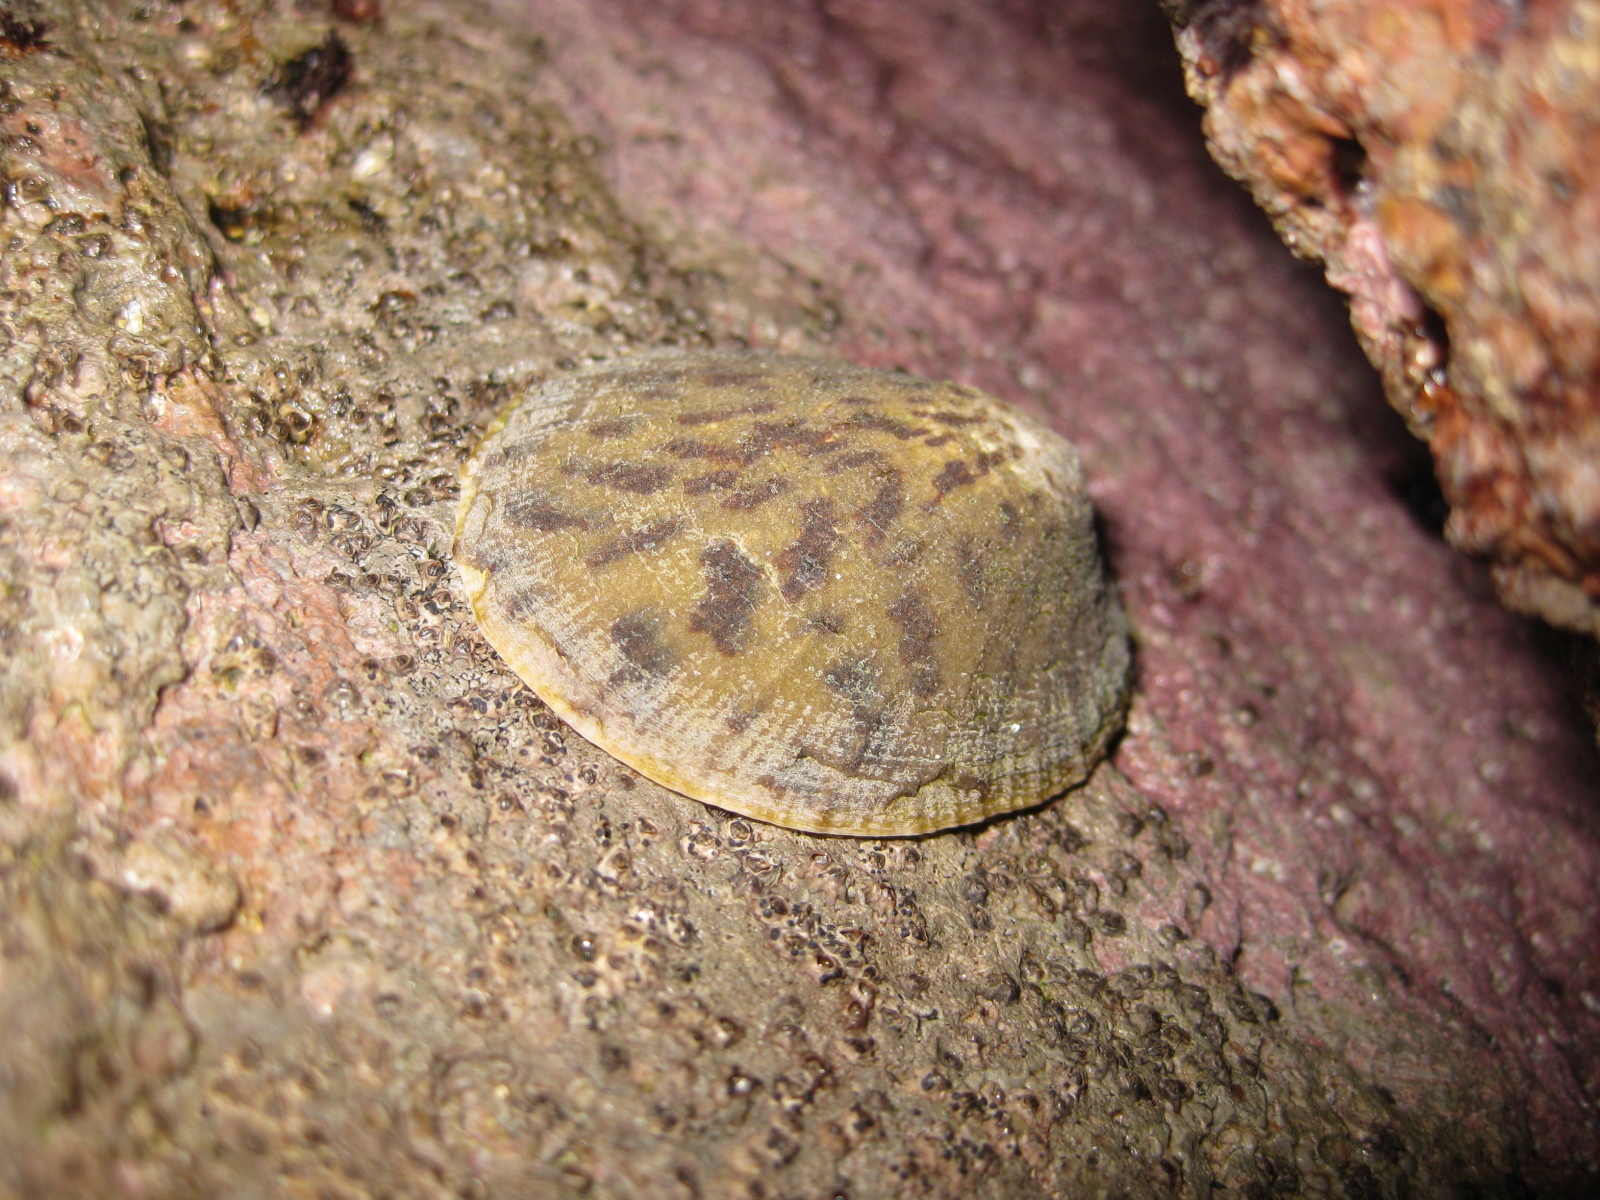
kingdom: Animalia
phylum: Mollusca
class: Gastropoda
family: Nacellidae
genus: Cellana
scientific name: Cellana radians
